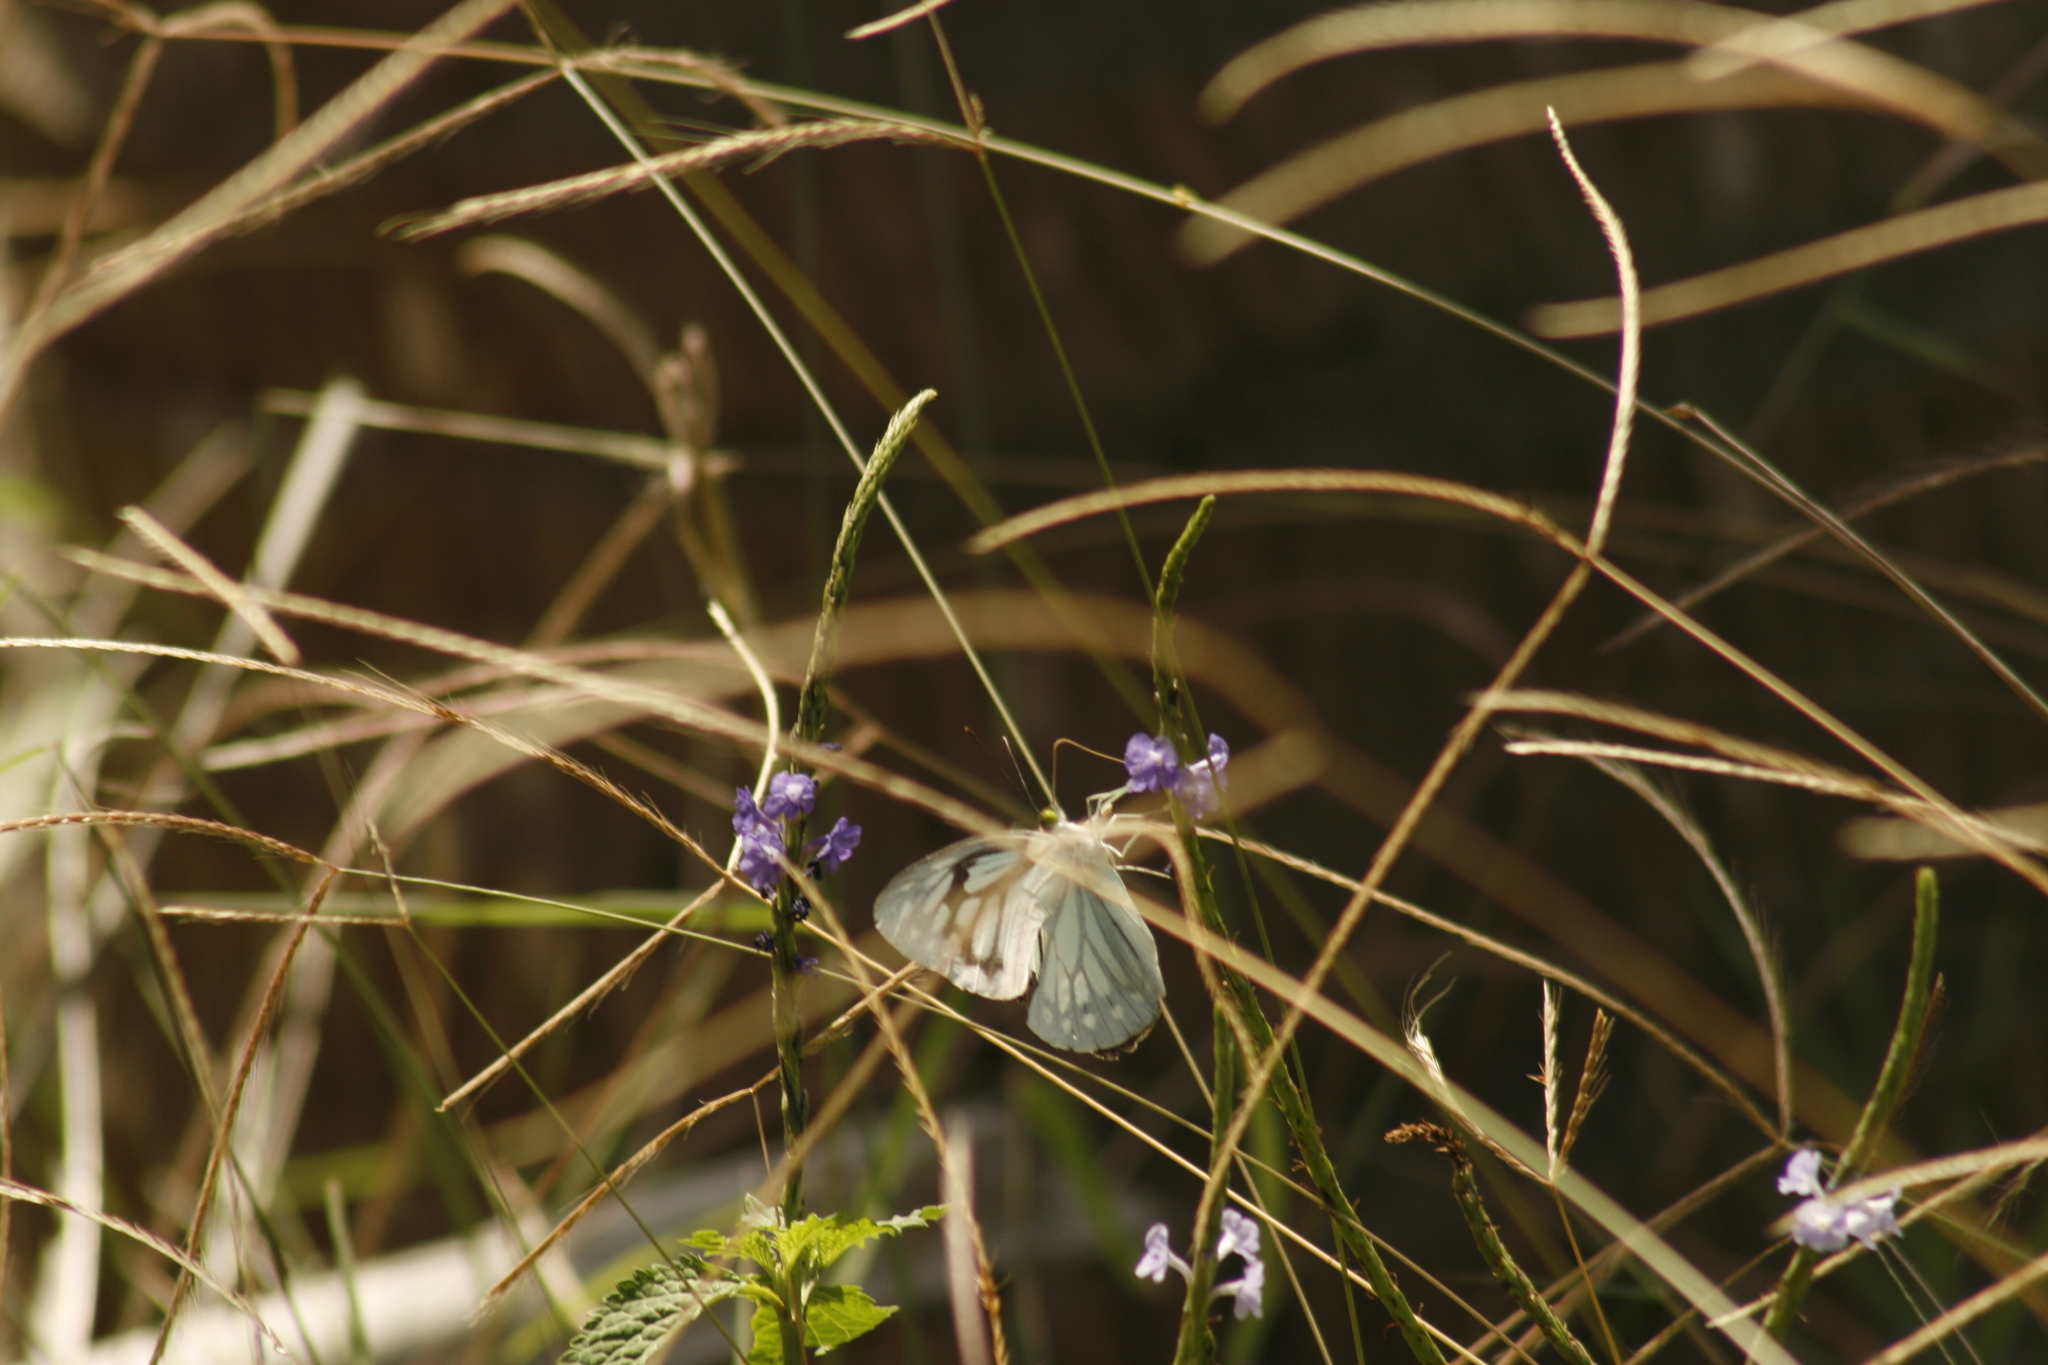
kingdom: Animalia
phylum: Arthropoda
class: Insecta
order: Lepidoptera
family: Pieridae
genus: Pareronia
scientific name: Pareronia hippia
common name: Indian wanderer
